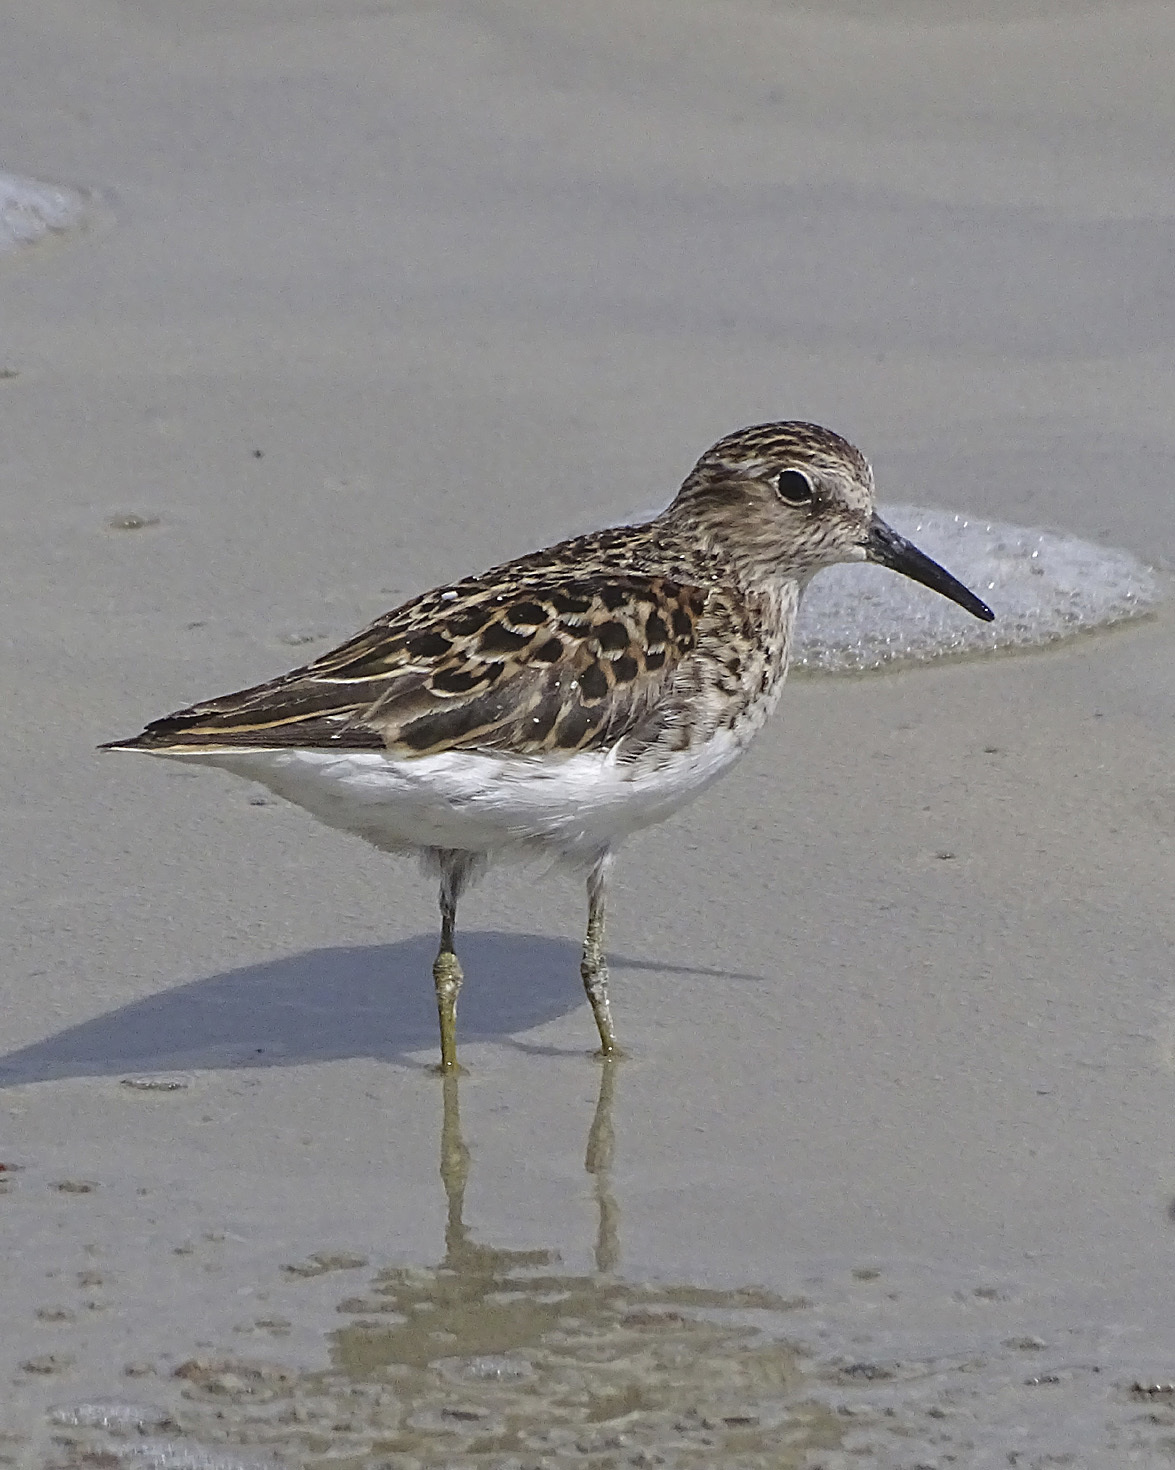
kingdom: Animalia
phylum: Chordata
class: Aves
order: Charadriiformes
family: Scolopacidae
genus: Calidris
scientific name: Calidris minutilla
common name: Least sandpiper
